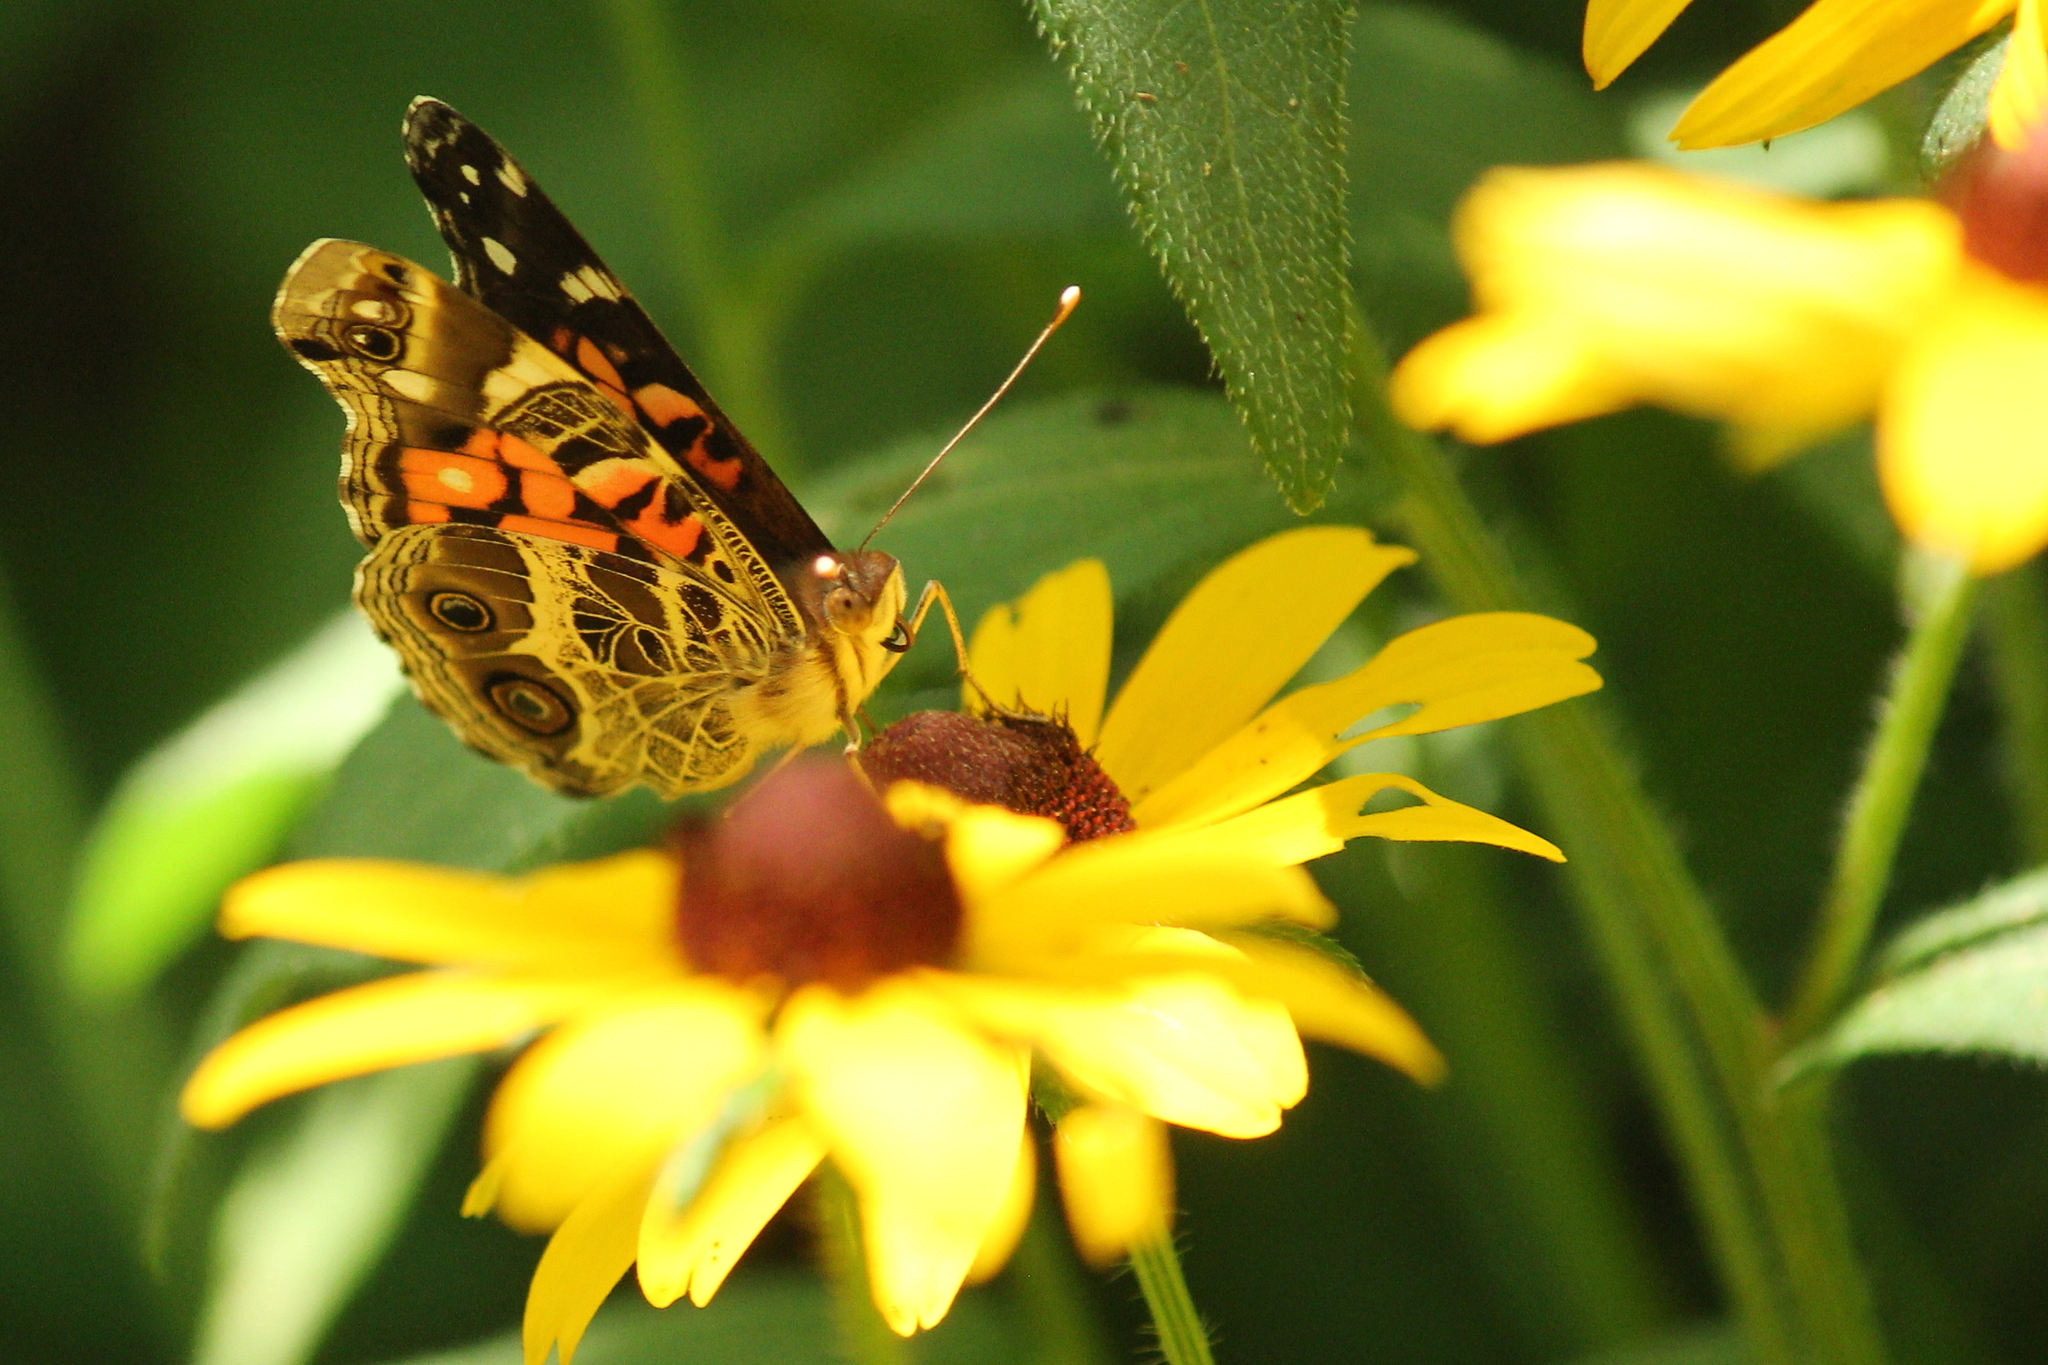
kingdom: Animalia
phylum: Arthropoda
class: Insecta
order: Lepidoptera
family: Nymphalidae
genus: Vanessa
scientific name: Vanessa virginiensis
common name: American lady
